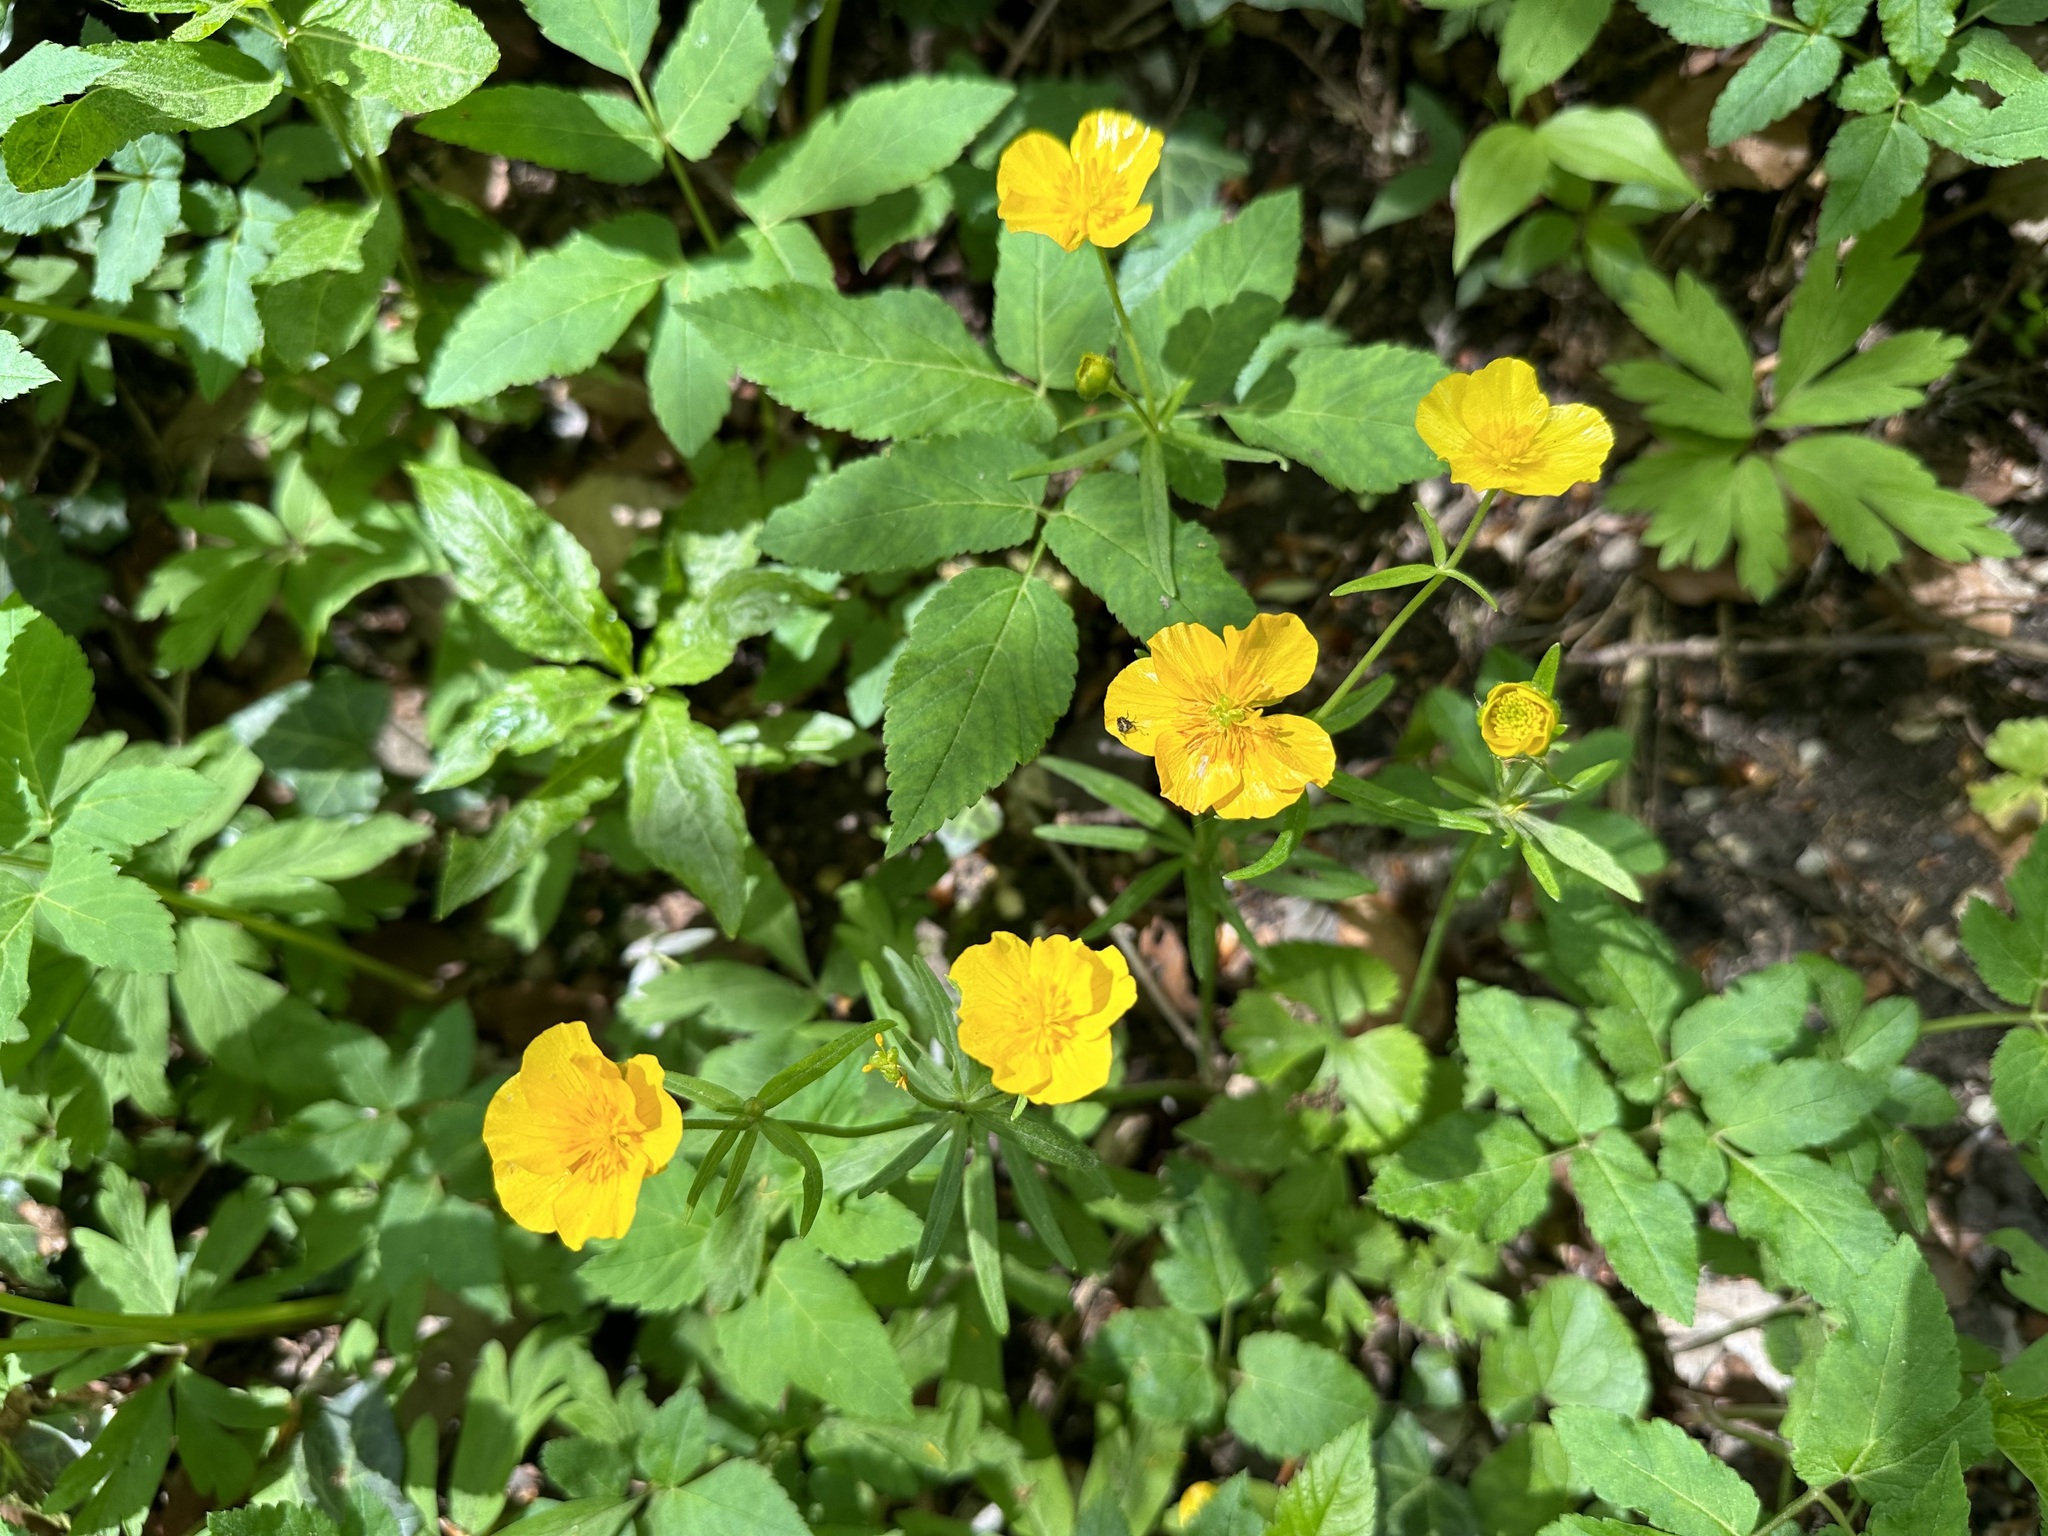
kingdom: Plantae
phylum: Tracheophyta
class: Magnoliopsida
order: Ranunculales
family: Ranunculaceae
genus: Ranunculus
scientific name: Ranunculus auricomus
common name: Goldilocks buttercup
